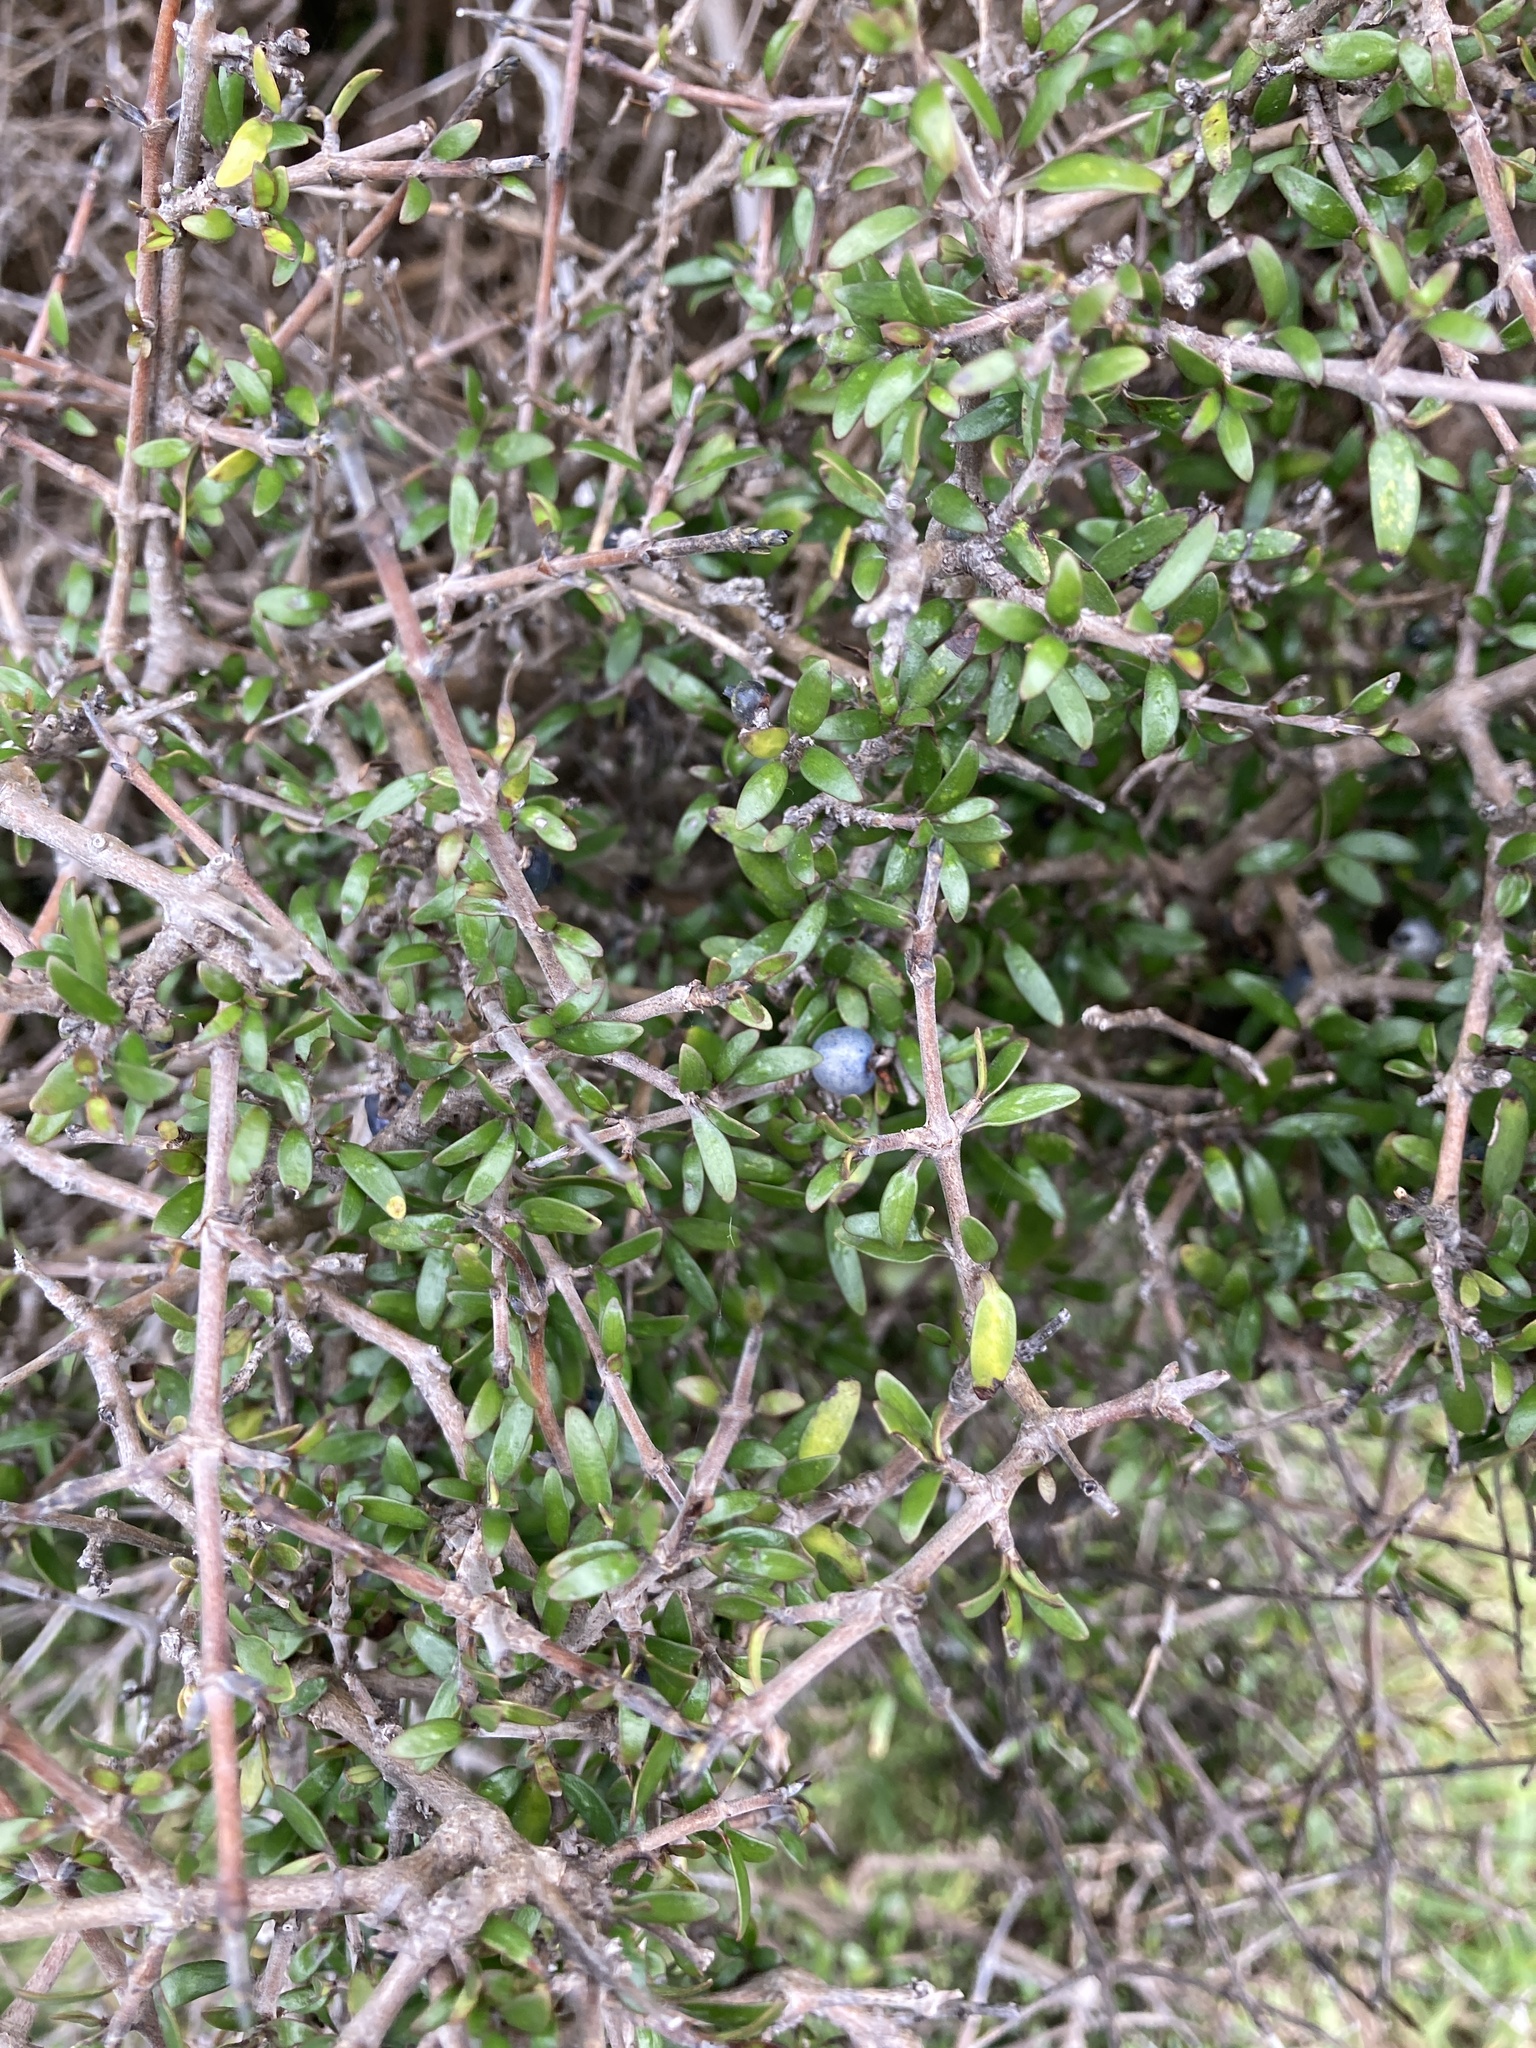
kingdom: Plantae
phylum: Tracheophyta
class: Magnoliopsida
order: Gentianales
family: Rubiaceae
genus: Coprosma
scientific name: Coprosma propinqua
